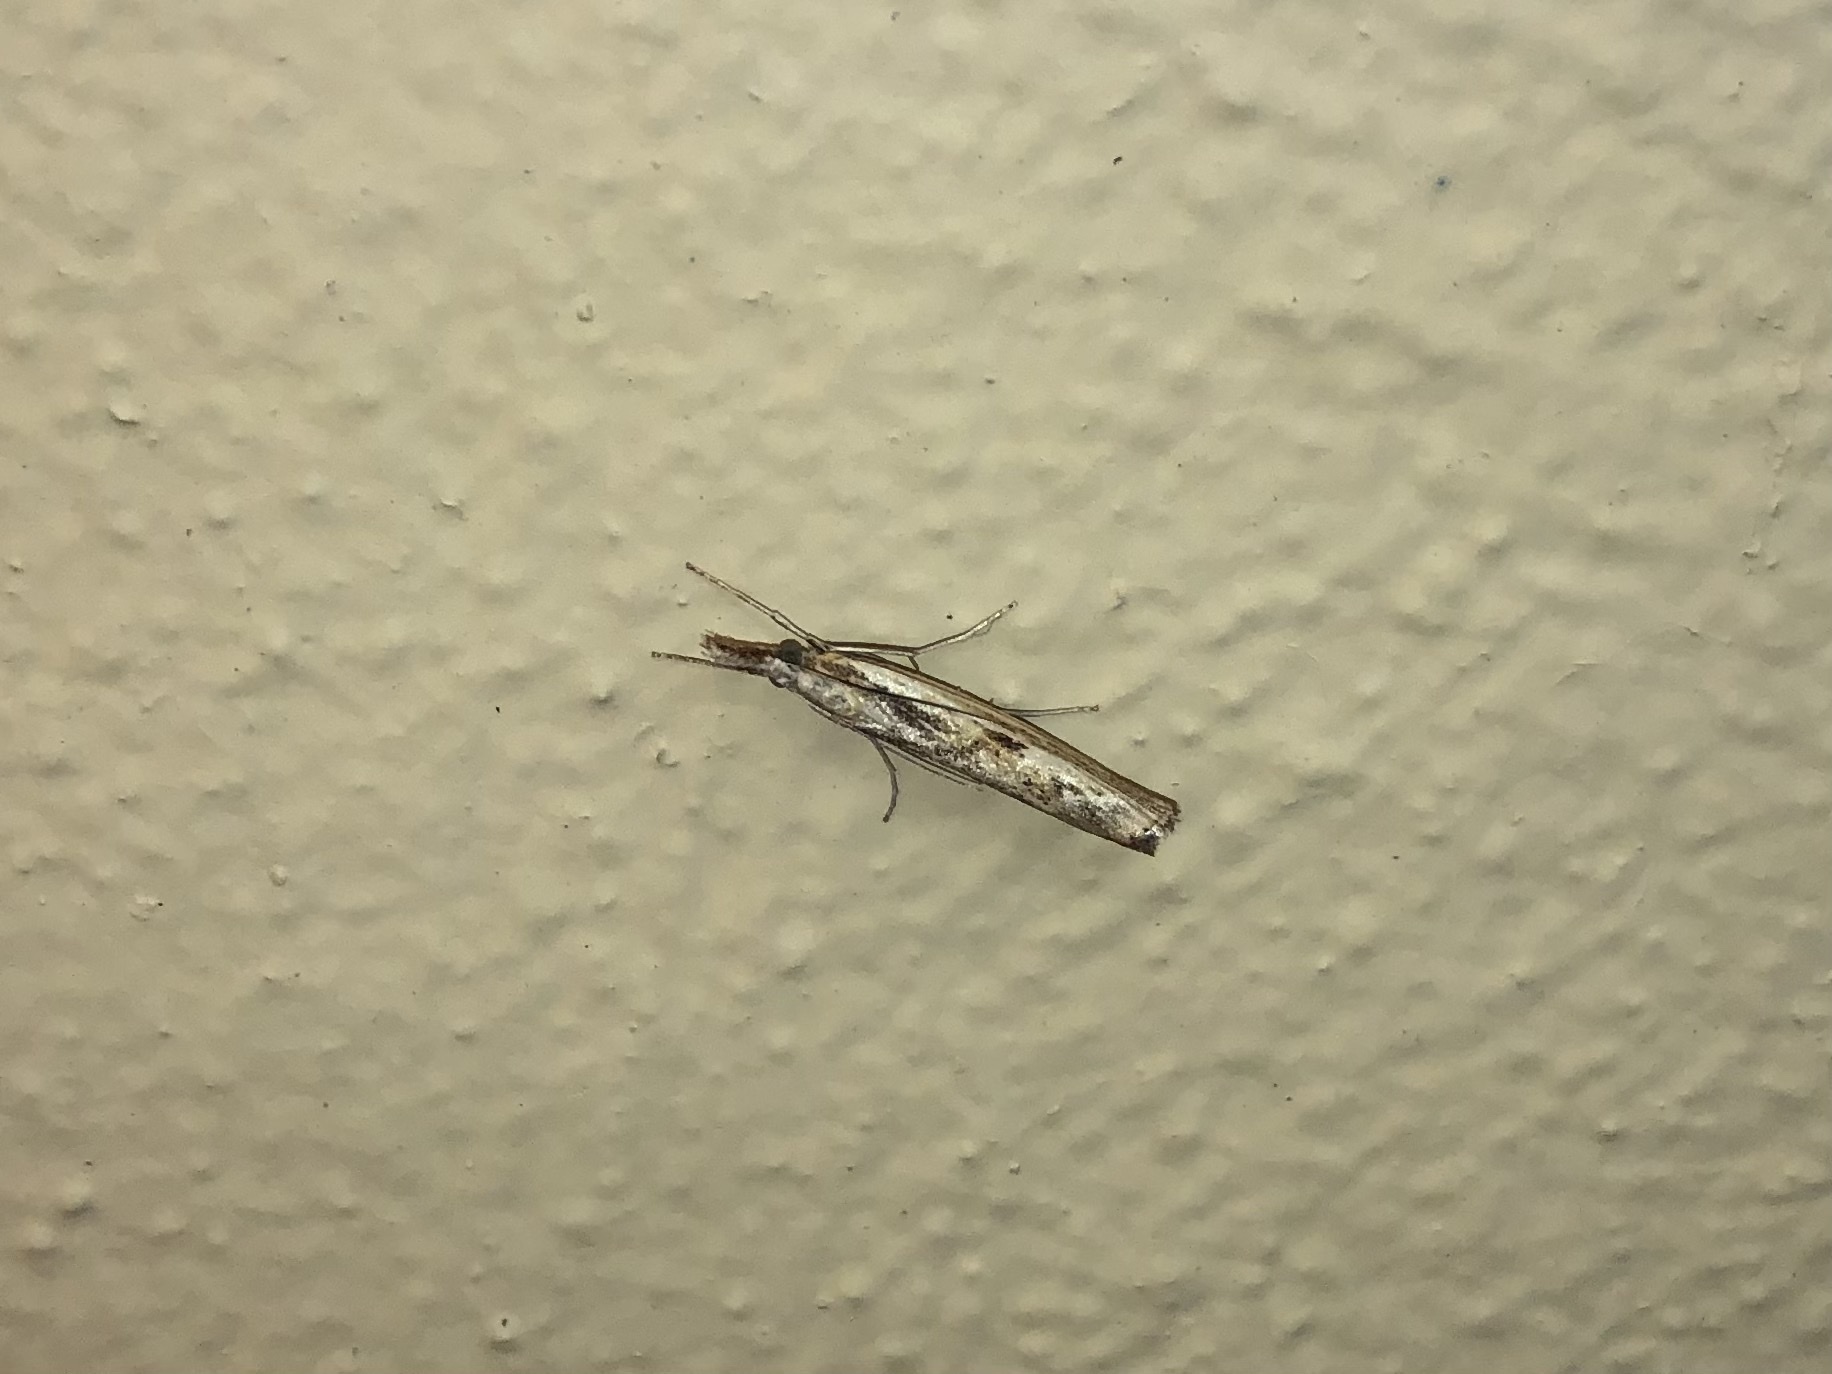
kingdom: Animalia
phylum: Arthropoda
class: Insecta
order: Lepidoptera
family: Crambidae
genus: Agriphila
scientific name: Agriphila inquinatella
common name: Barred grass-veneer
